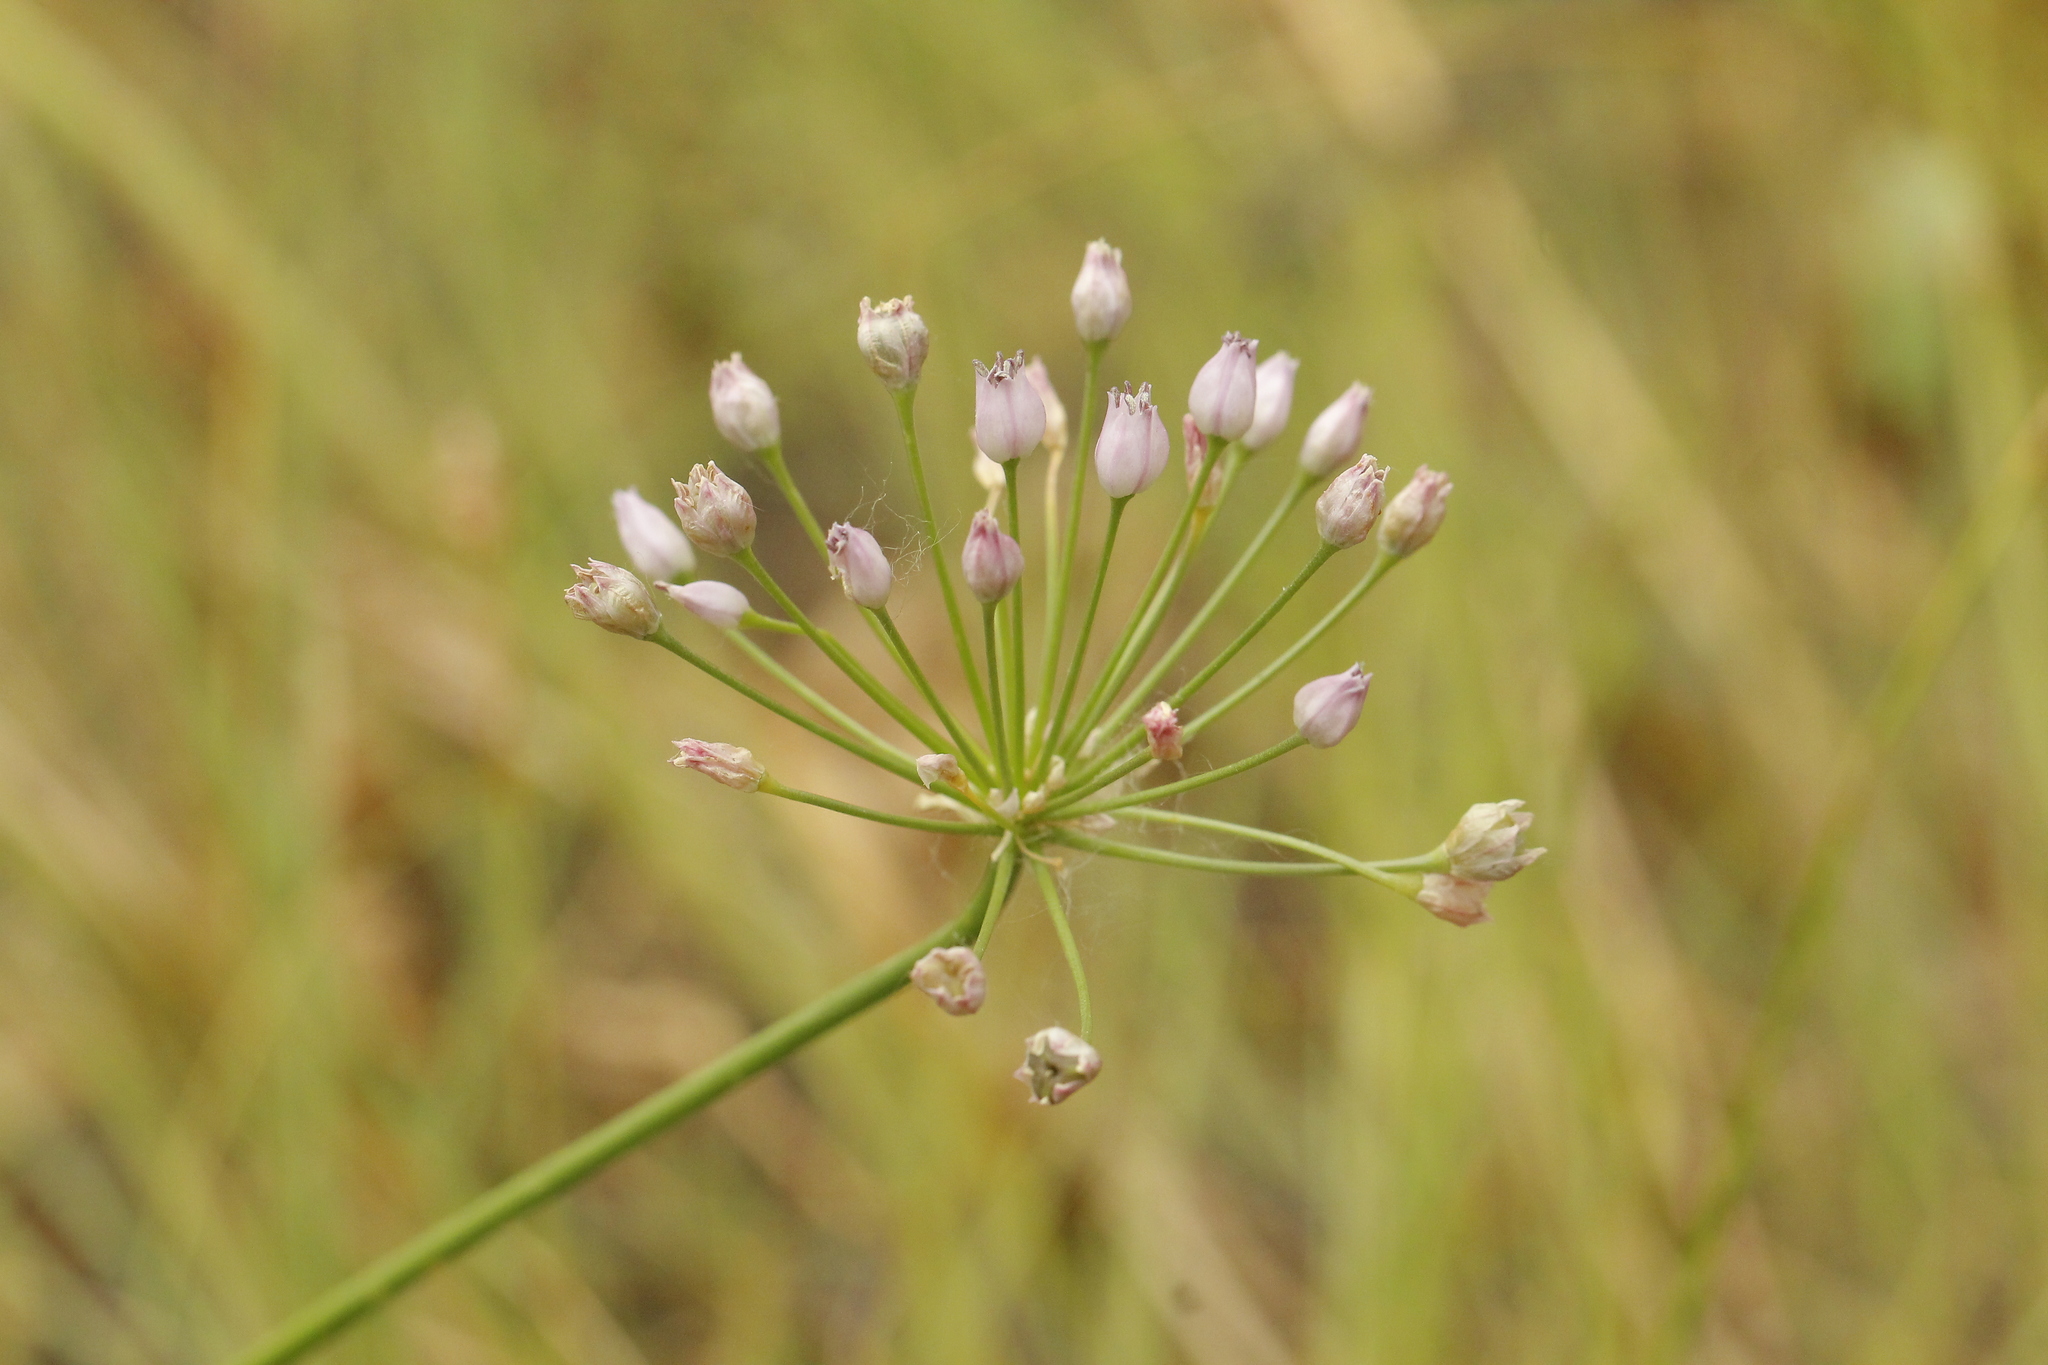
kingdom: Plantae
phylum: Tracheophyta
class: Liliopsida
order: Asparagales
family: Amaryllidaceae
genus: Allium
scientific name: Allium angulosum
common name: Mouse garlic
